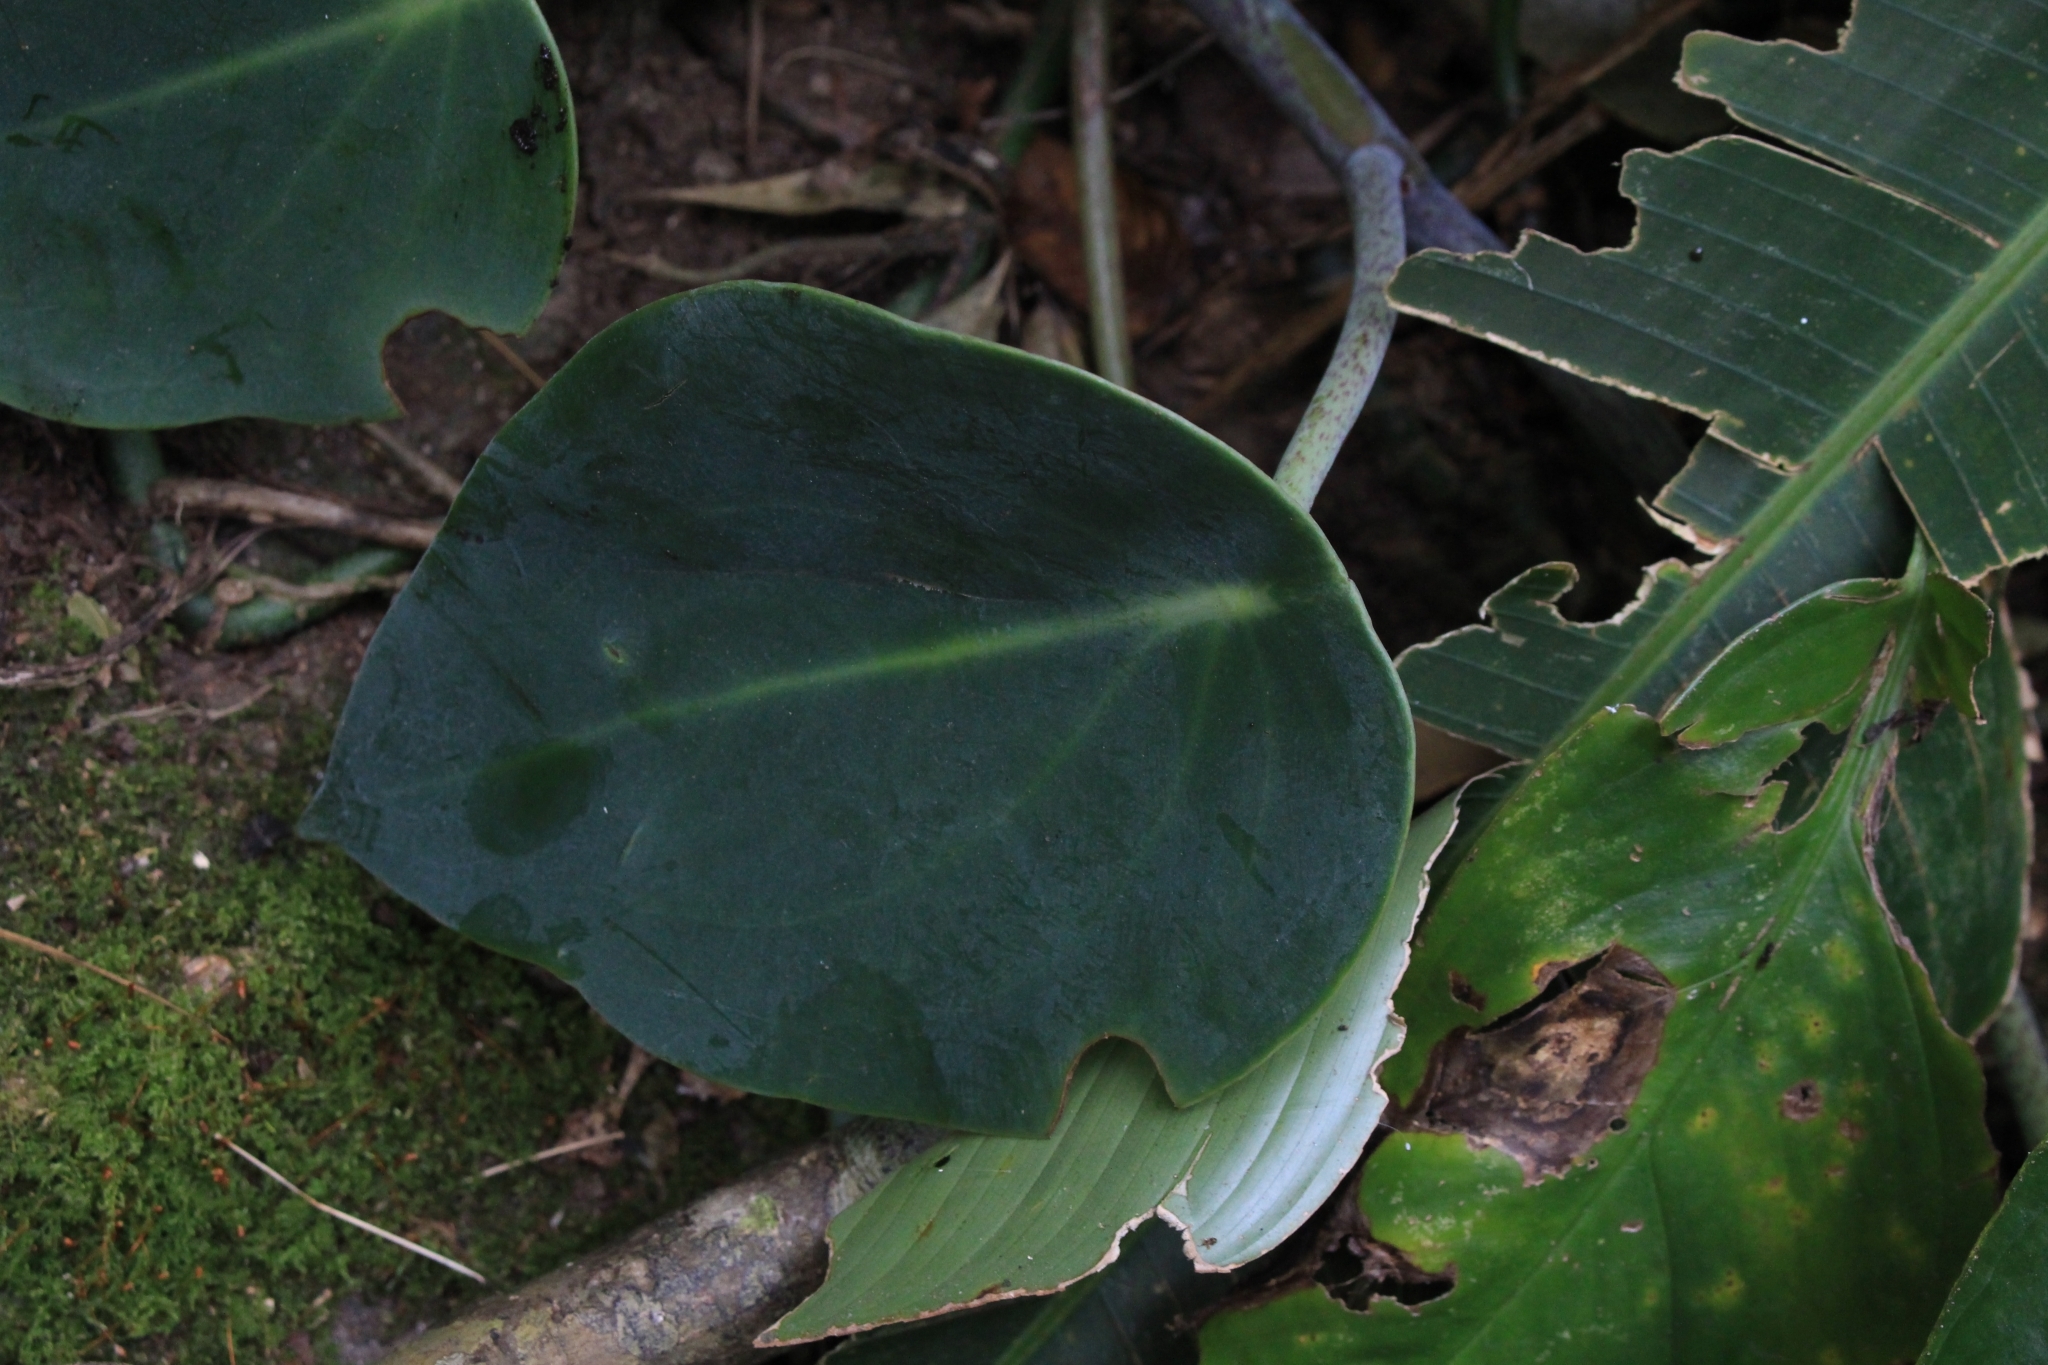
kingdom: Plantae
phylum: Tracheophyta
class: Magnoliopsida
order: Piperales
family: Piperaceae
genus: Peperomia
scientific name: Peperomia maculosa
